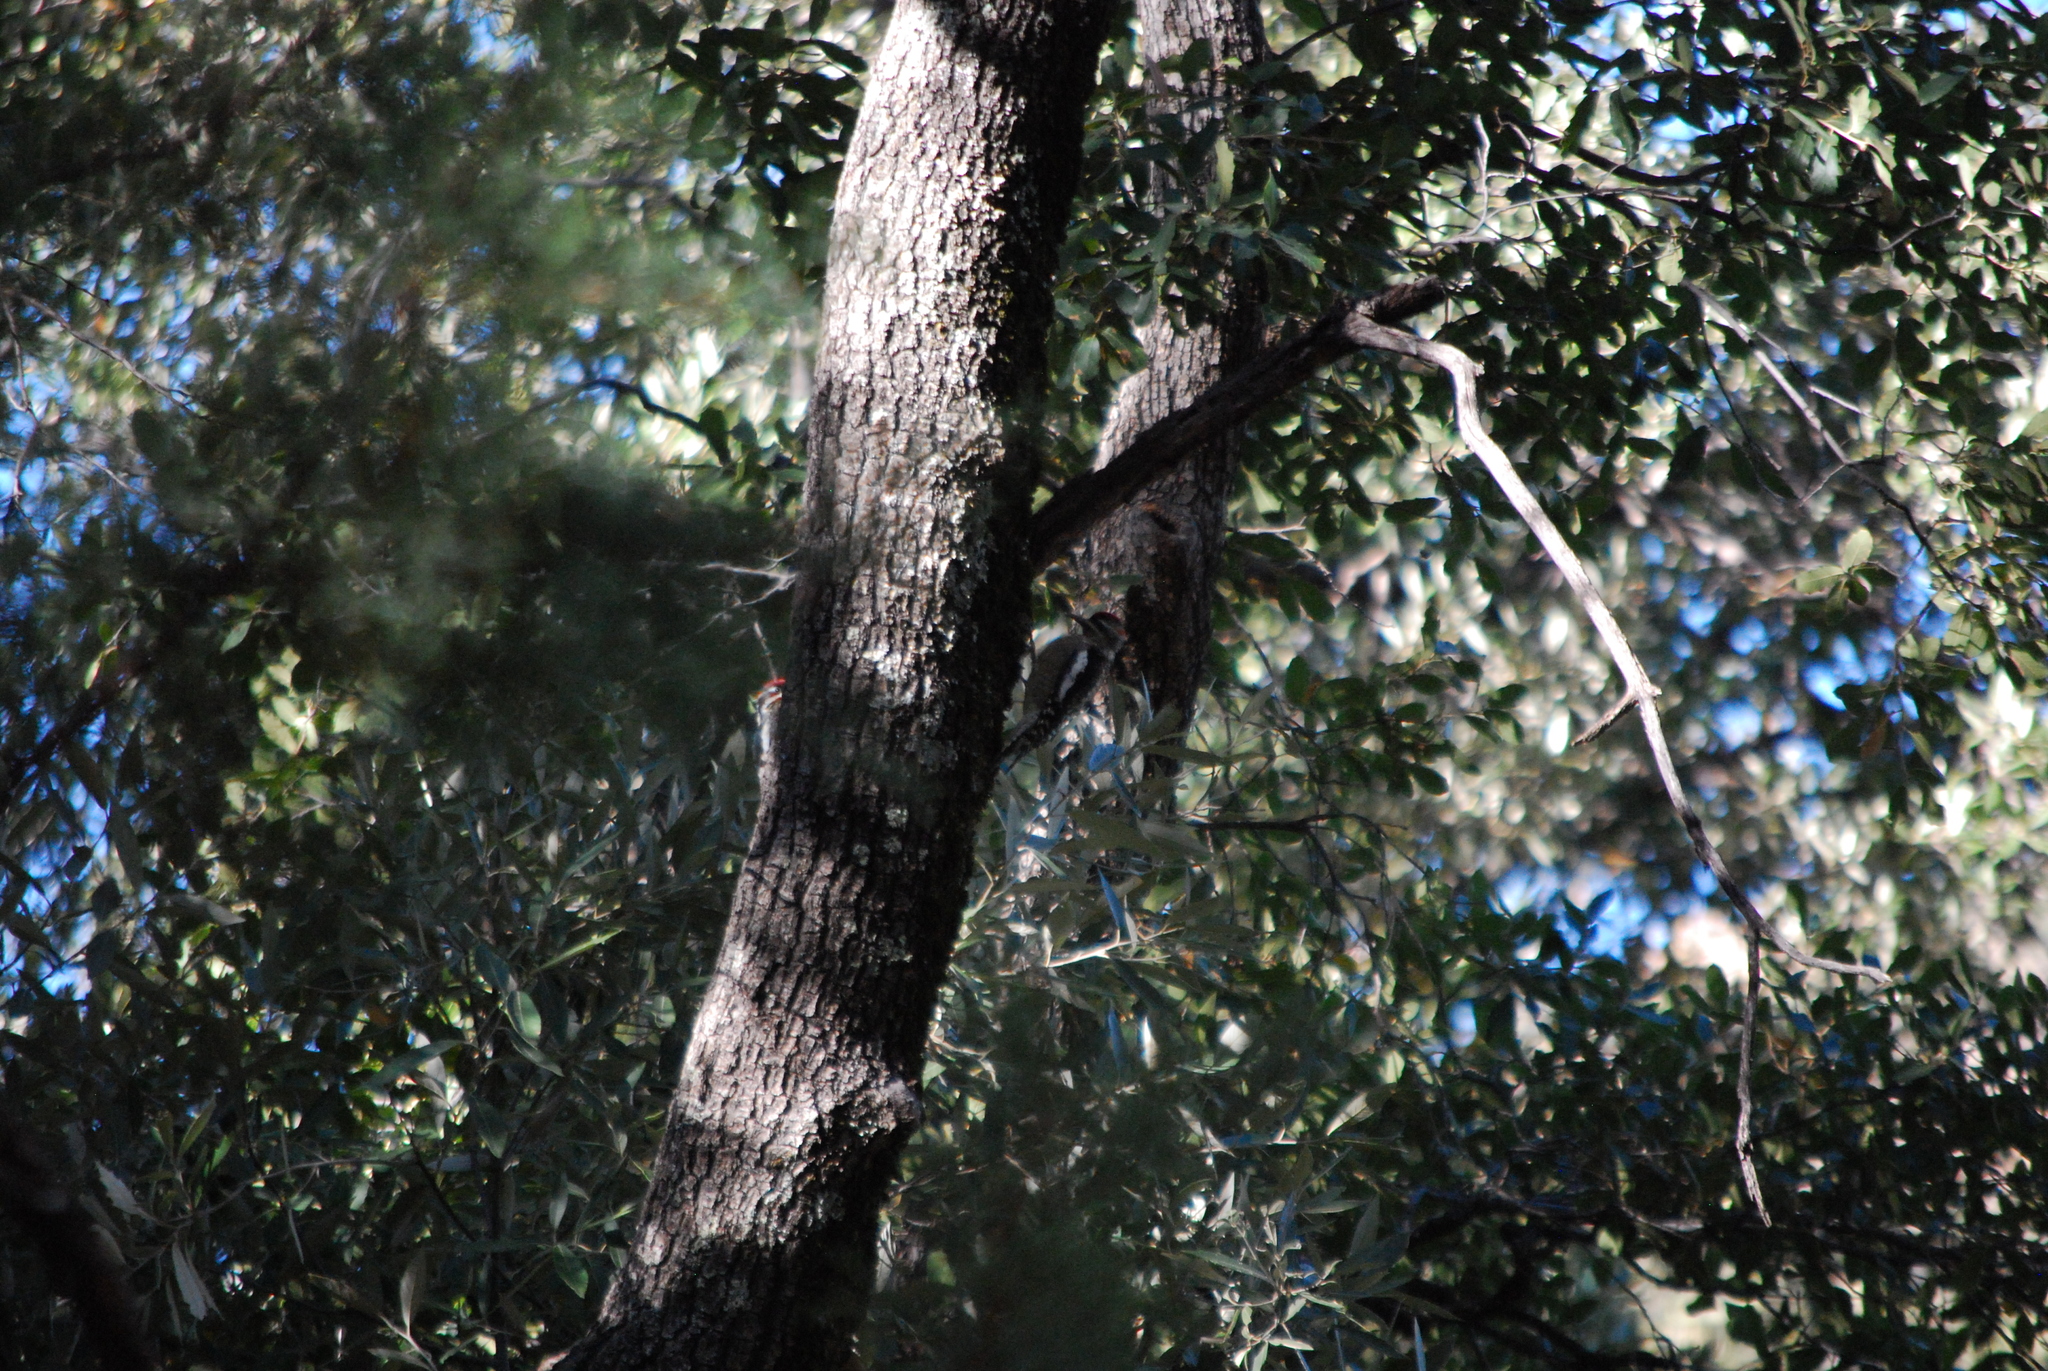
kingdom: Animalia
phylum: Chordata
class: Aves
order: Piciformes
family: Picidae
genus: Sphyrapicus
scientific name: Sphyrapicus nuchalis
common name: Red-naped sapsucker
